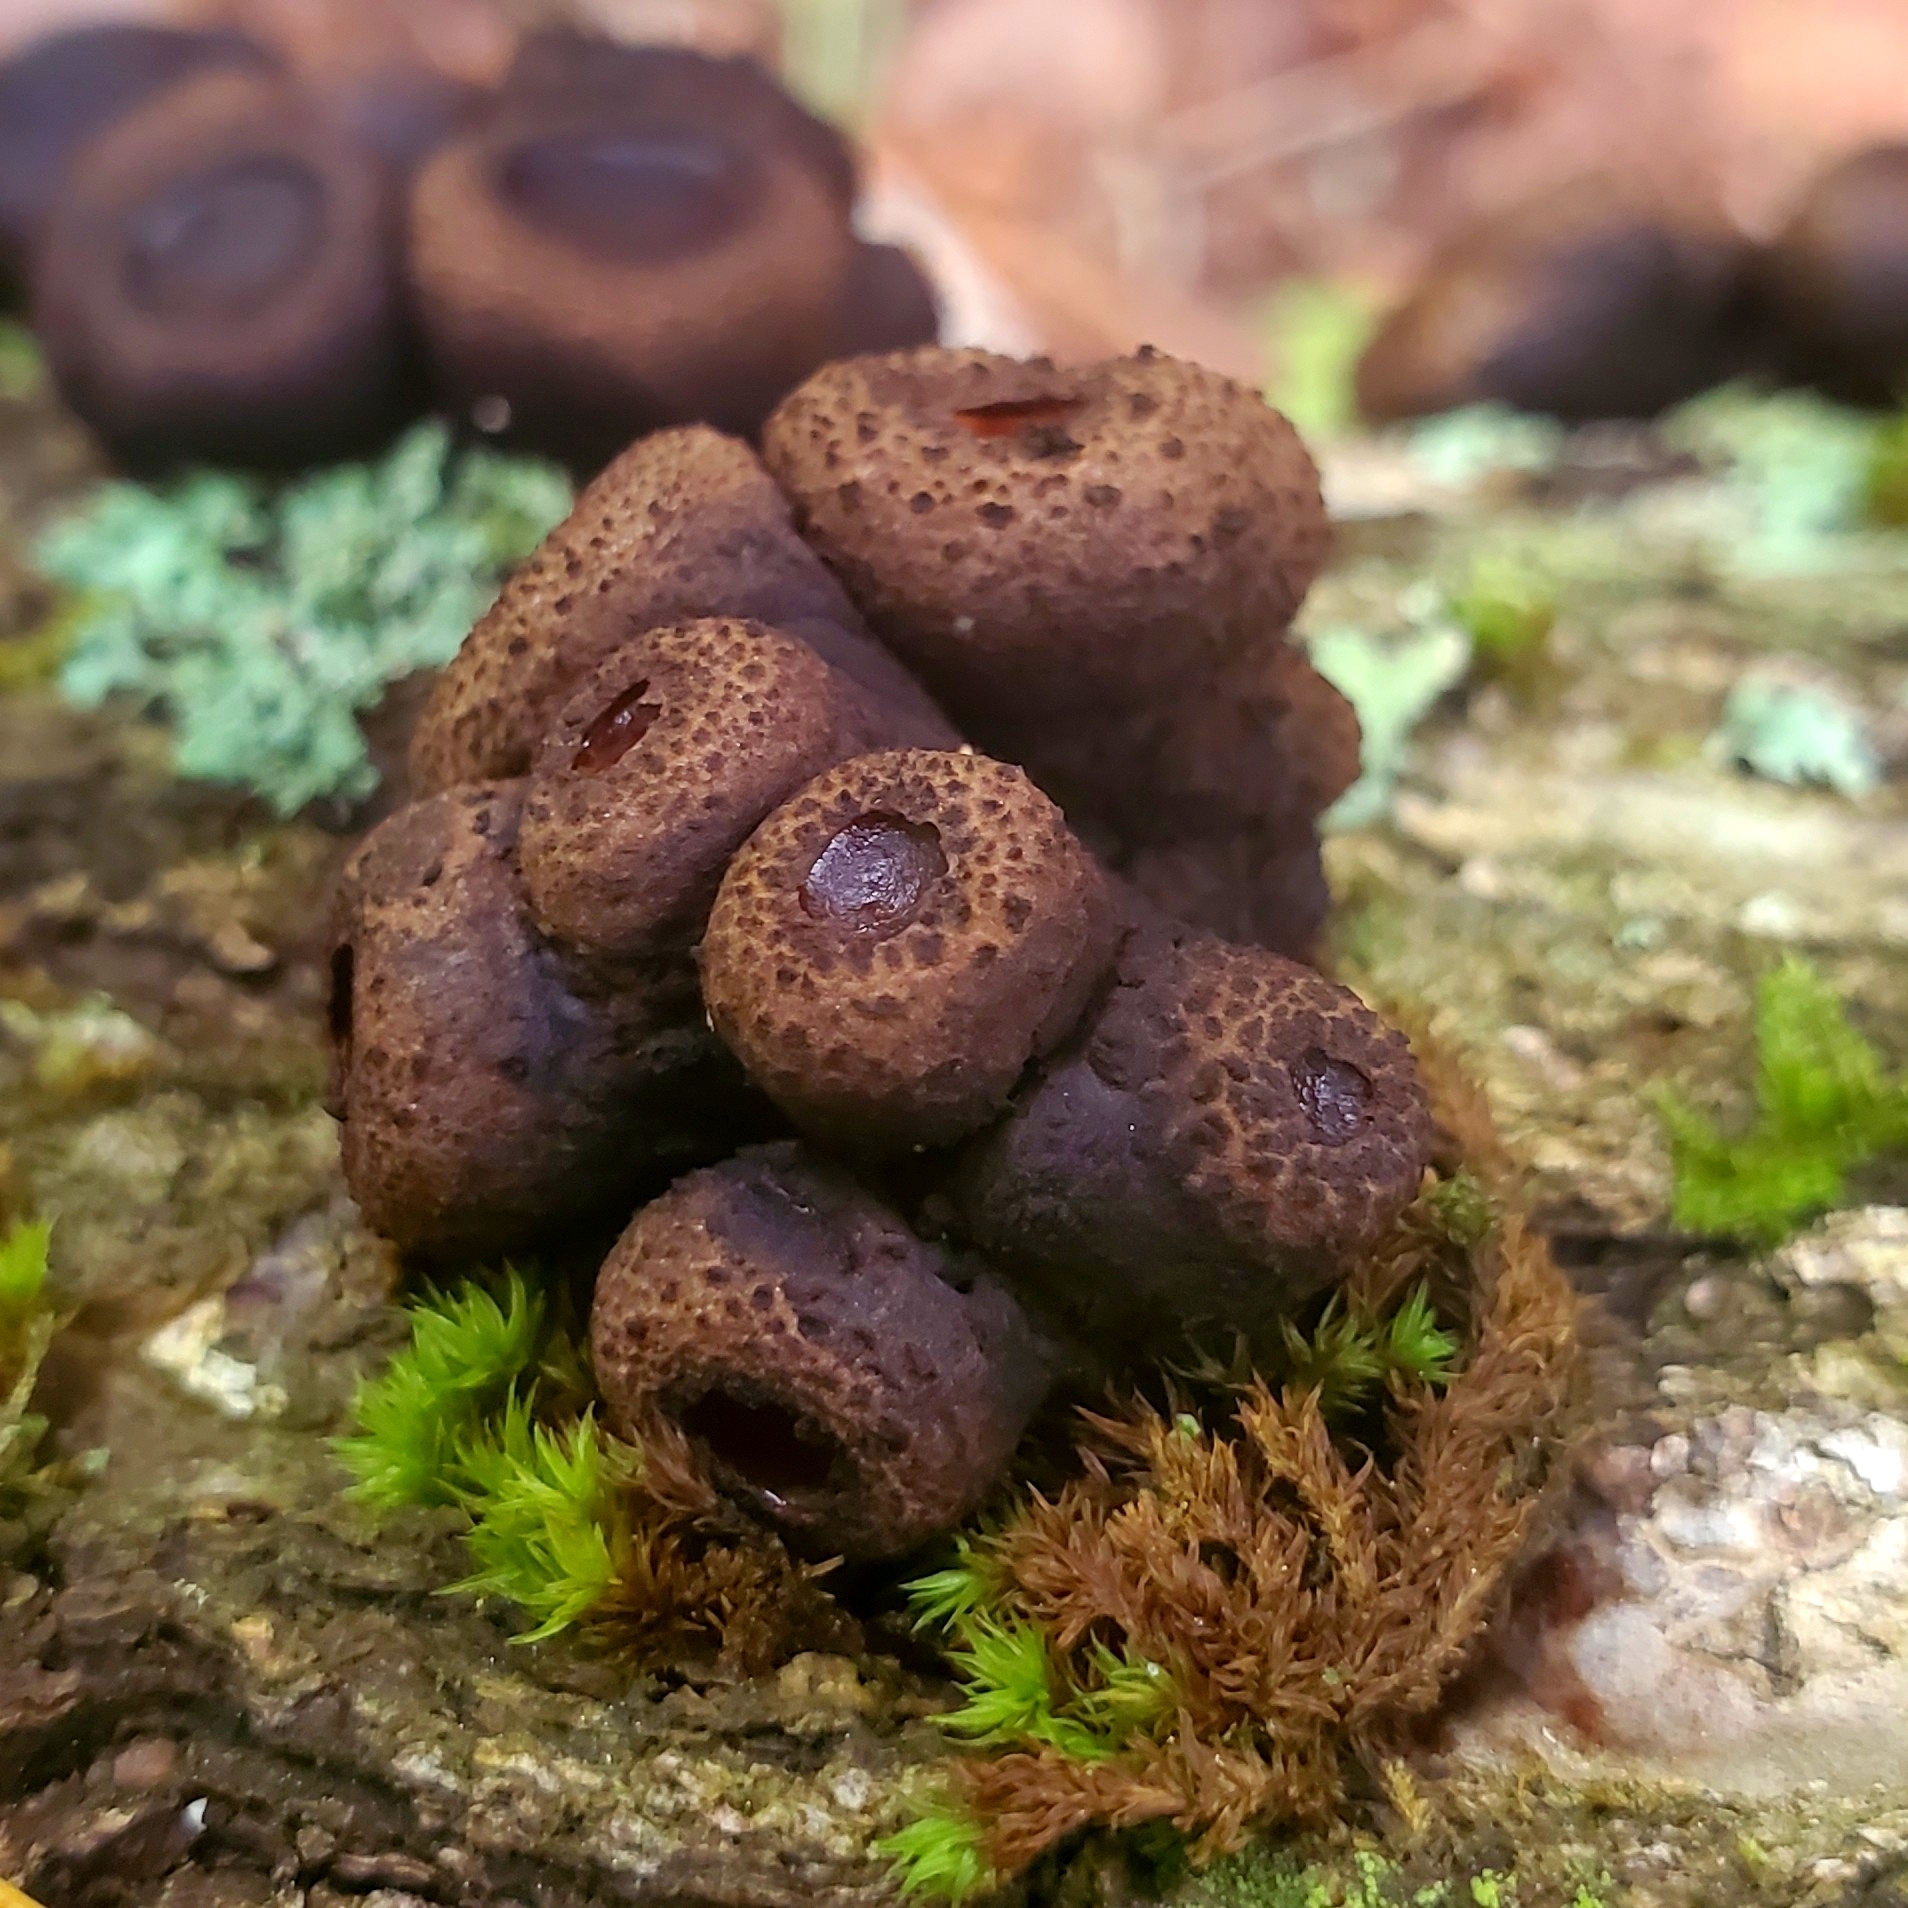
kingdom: Fungi
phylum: Ascomycota
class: Leotiomycetes
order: Phacidiales
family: Phacidiaceae
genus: Bulgaria
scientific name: Bulgaria inquinans
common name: Black bulgar
